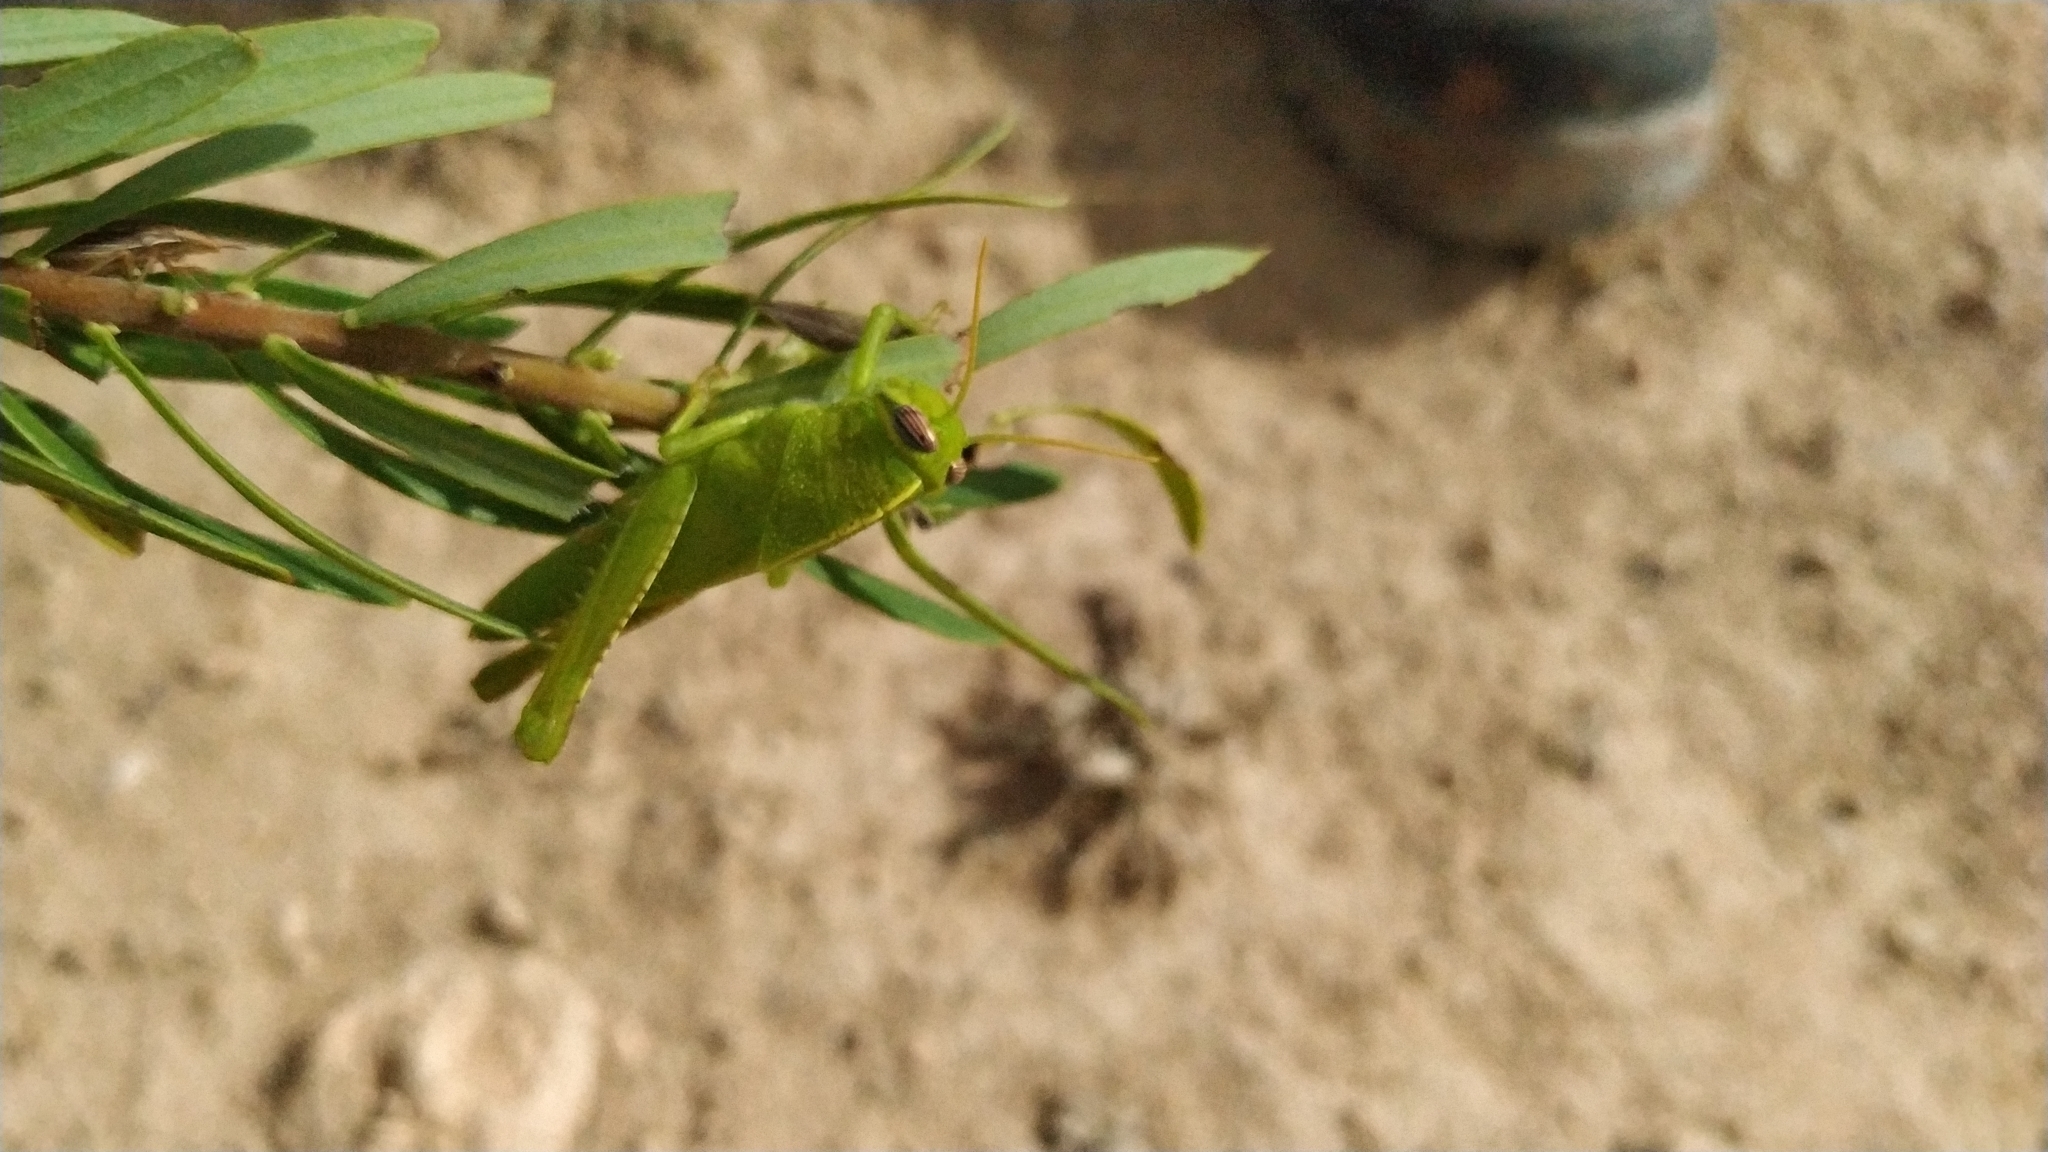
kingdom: Animalia
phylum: Arthropoda
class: Insecta
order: Orthoptera
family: Acrididae
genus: Anacridium
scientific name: Anacridium aegyptium
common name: Egyptian grasshopper
